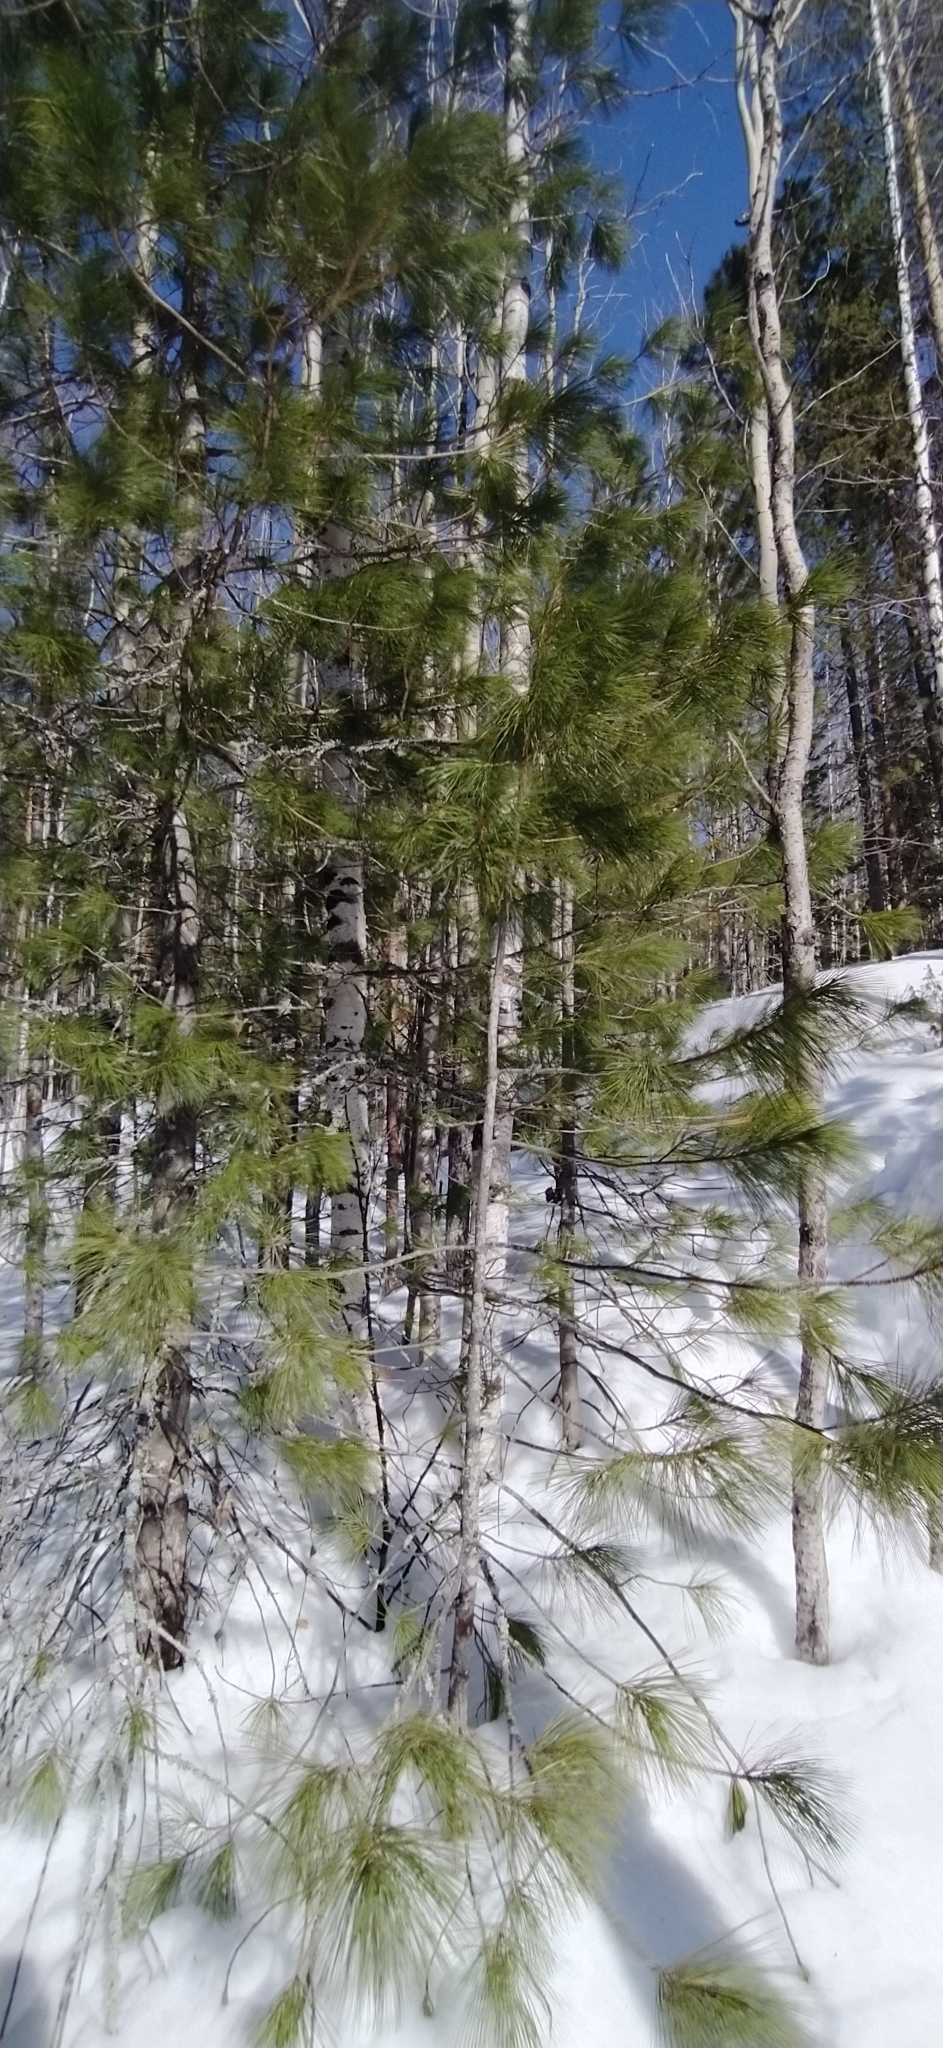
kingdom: Plantae
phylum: Tracheophyta
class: Pinopsida
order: Pinales
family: Pinaceae
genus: Pinus
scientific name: Pinus sibirica
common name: Siberian pine
